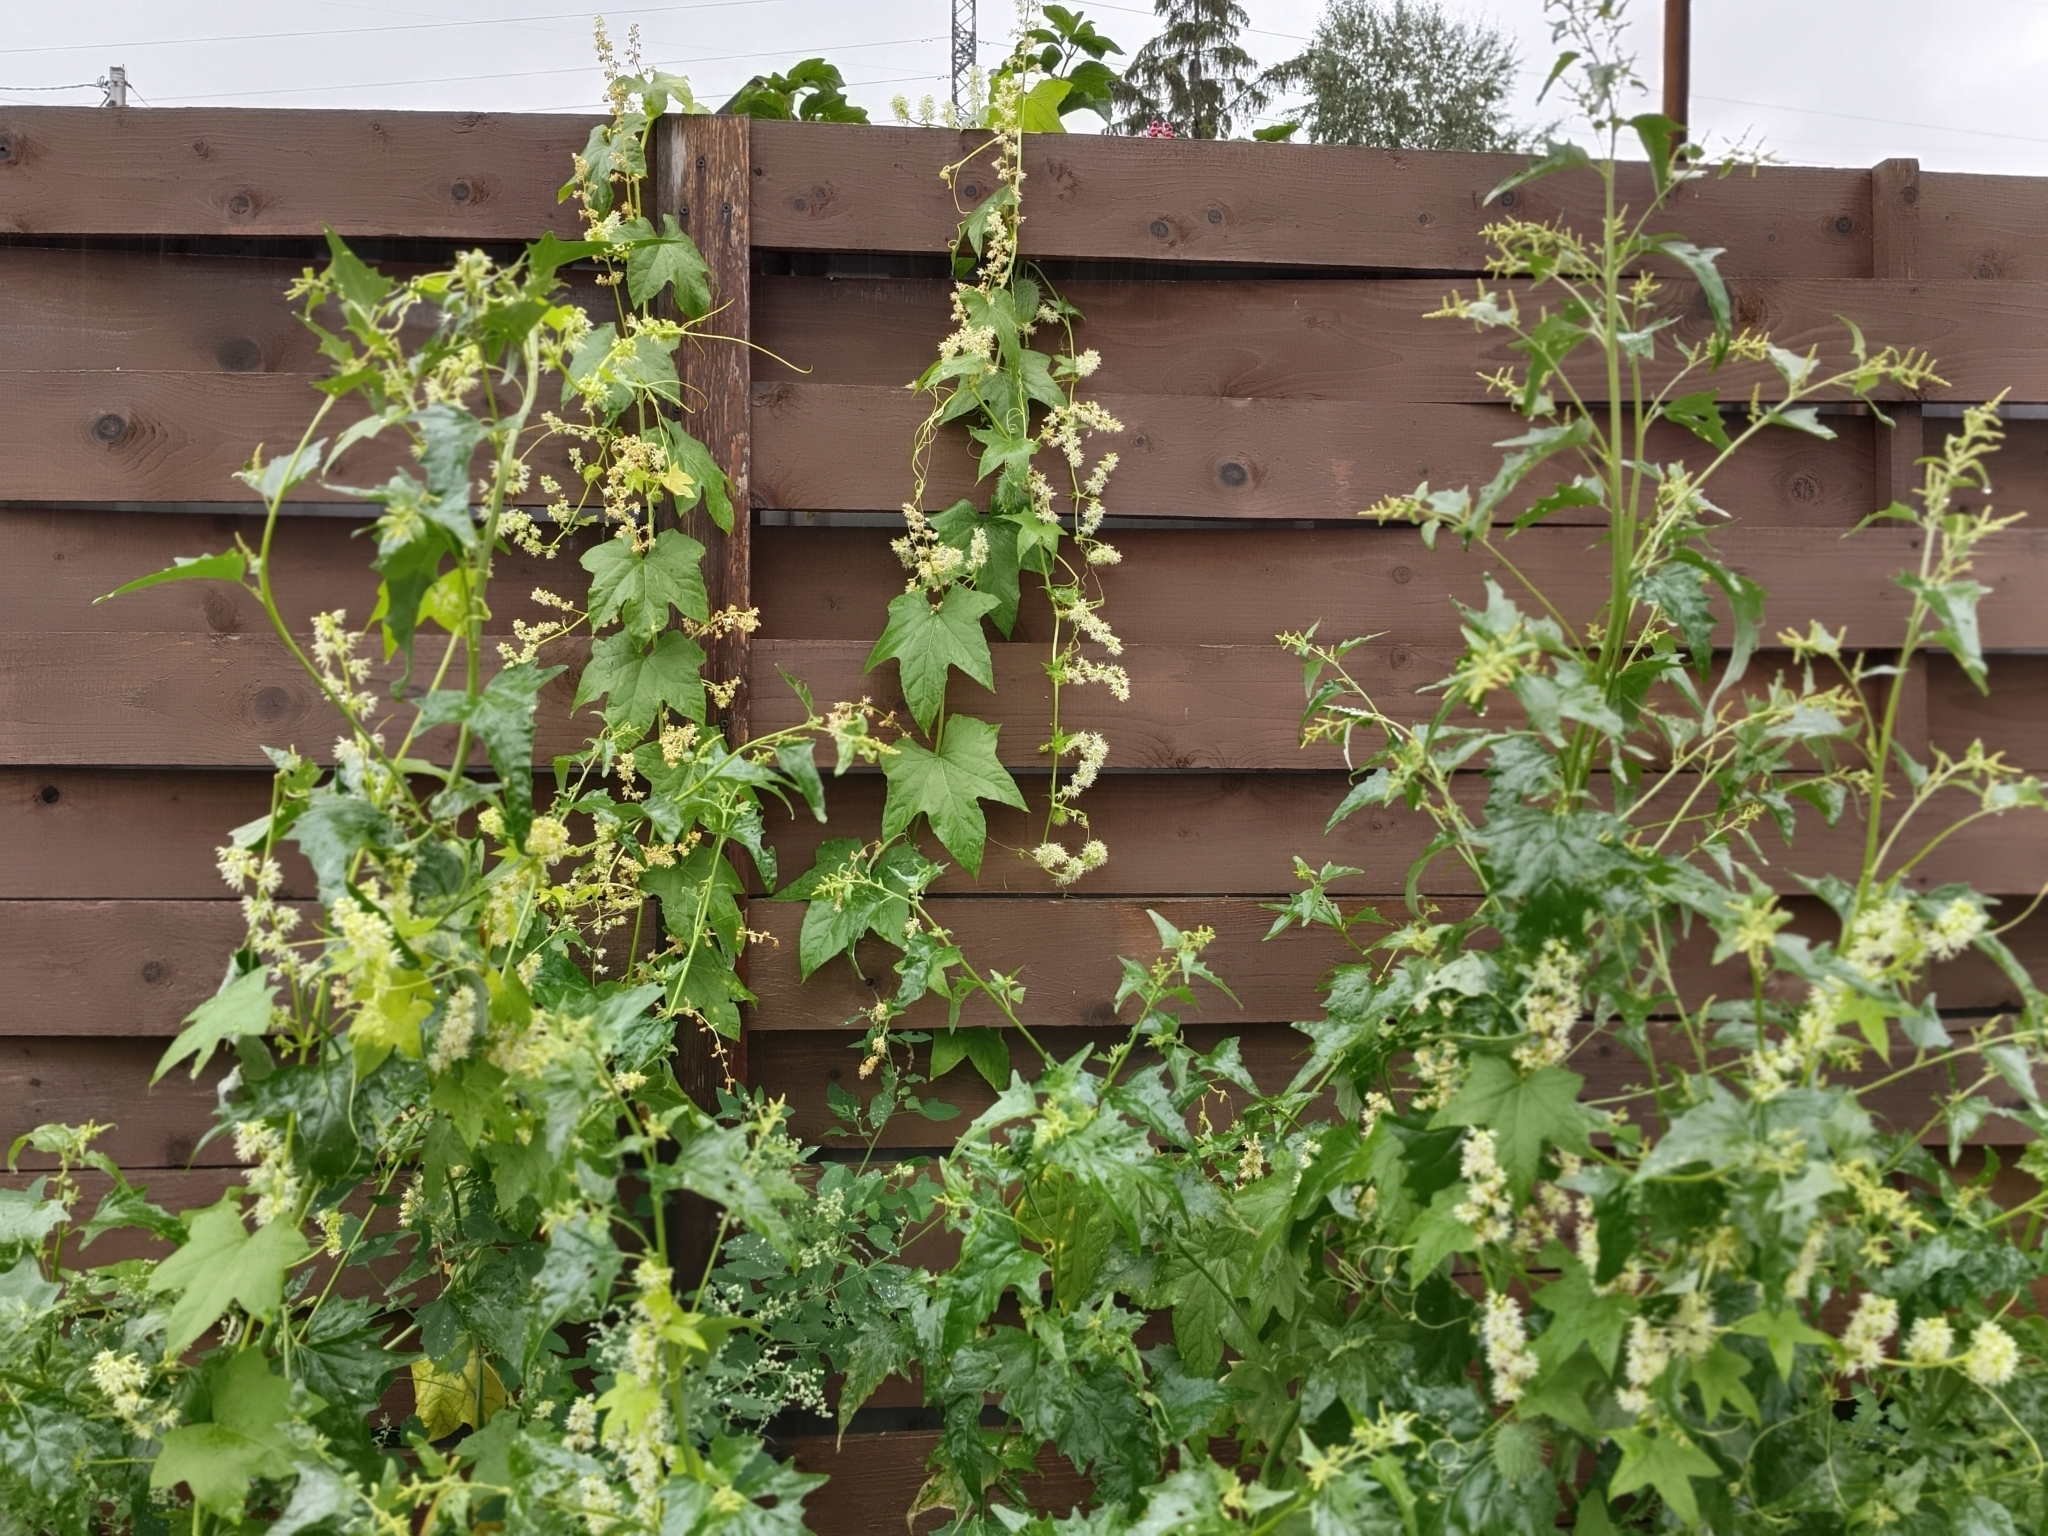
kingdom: Plantae
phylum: Tracheophyta
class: Magnoliopsida
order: Cucurbitales
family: Cucurbitaceae
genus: Echinocystis
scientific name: Echinocystis lobata
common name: Wild cucumber
